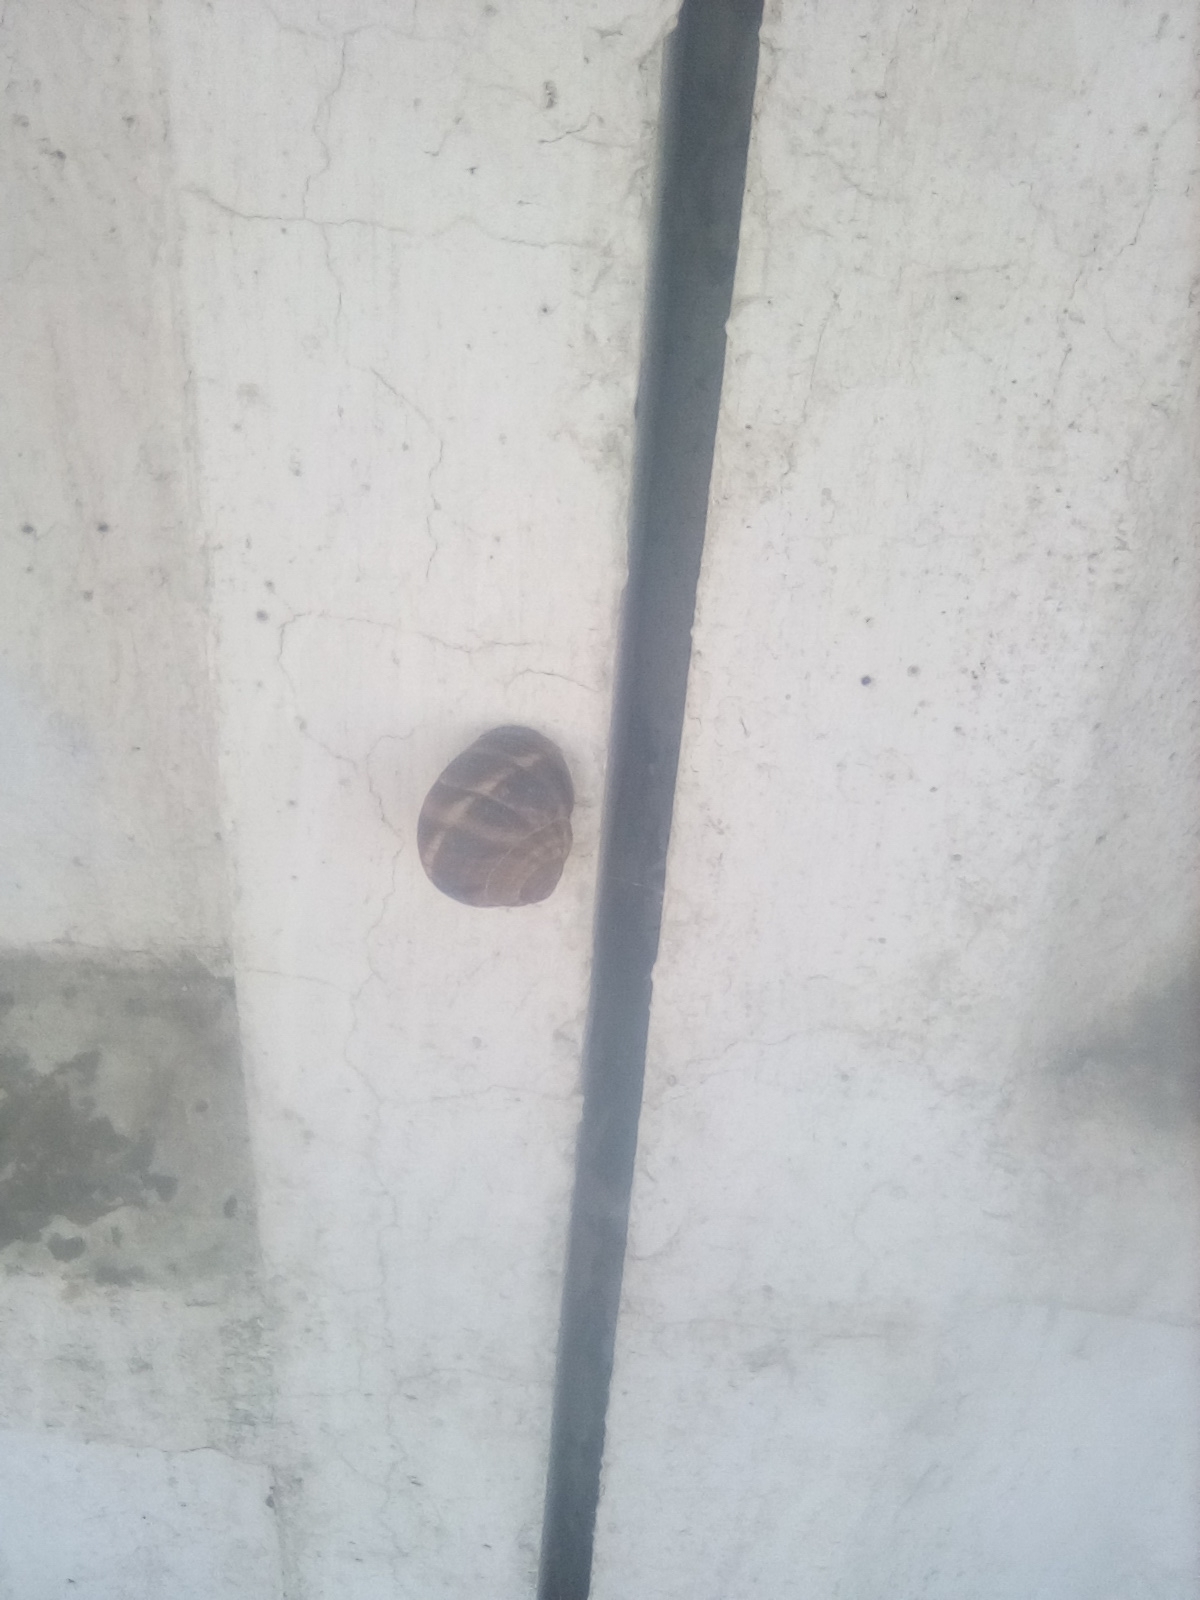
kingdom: Animalia
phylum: Mollusca
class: Gastropoda
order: Stylommatophora
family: Helicidae
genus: Helix
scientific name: Helix lucorum
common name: Turkish snail
